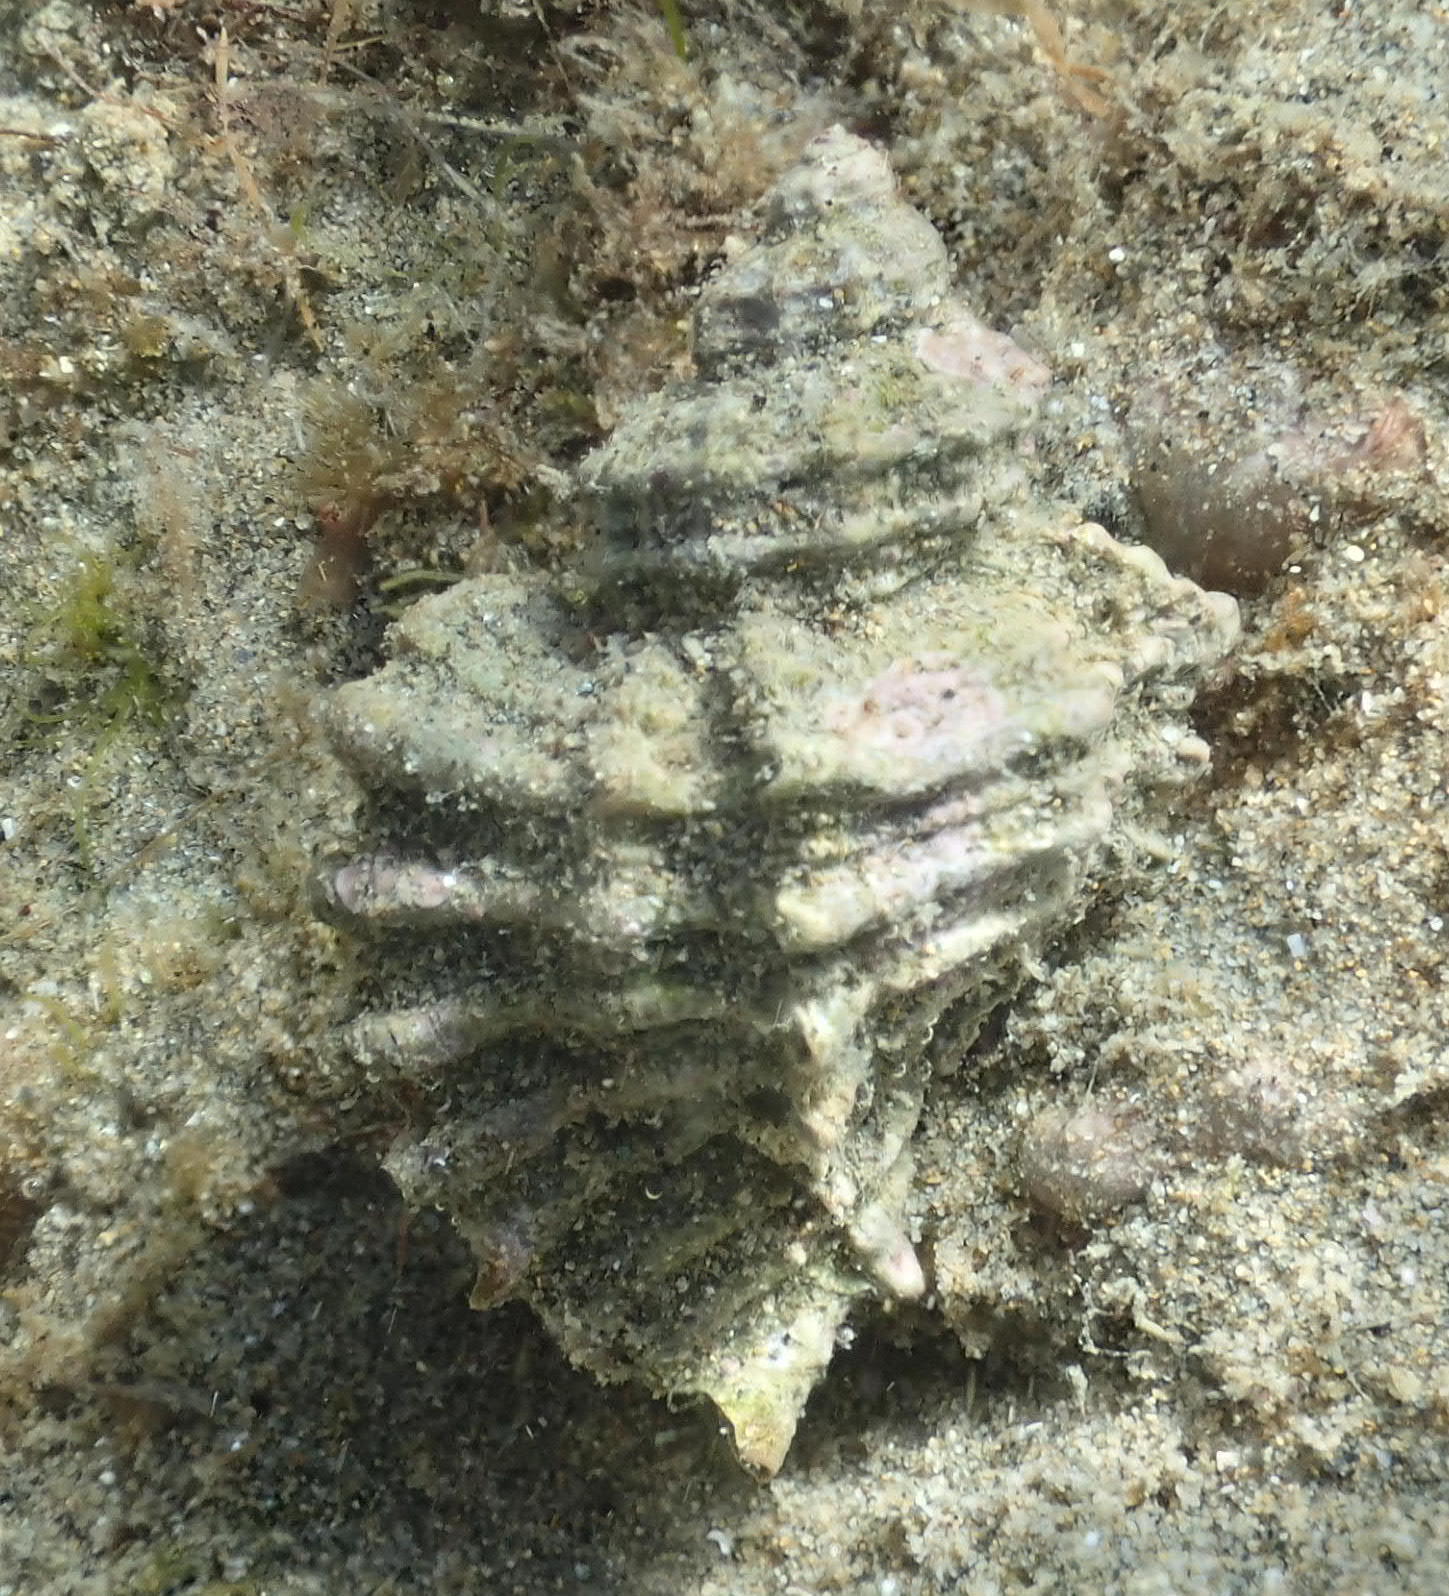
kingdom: Animalia
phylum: Mollusca
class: Gastropoda
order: Neogastropoda
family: Muricidae
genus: Ocenebra
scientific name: Ocenebra erinaceus
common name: European sting winkle
